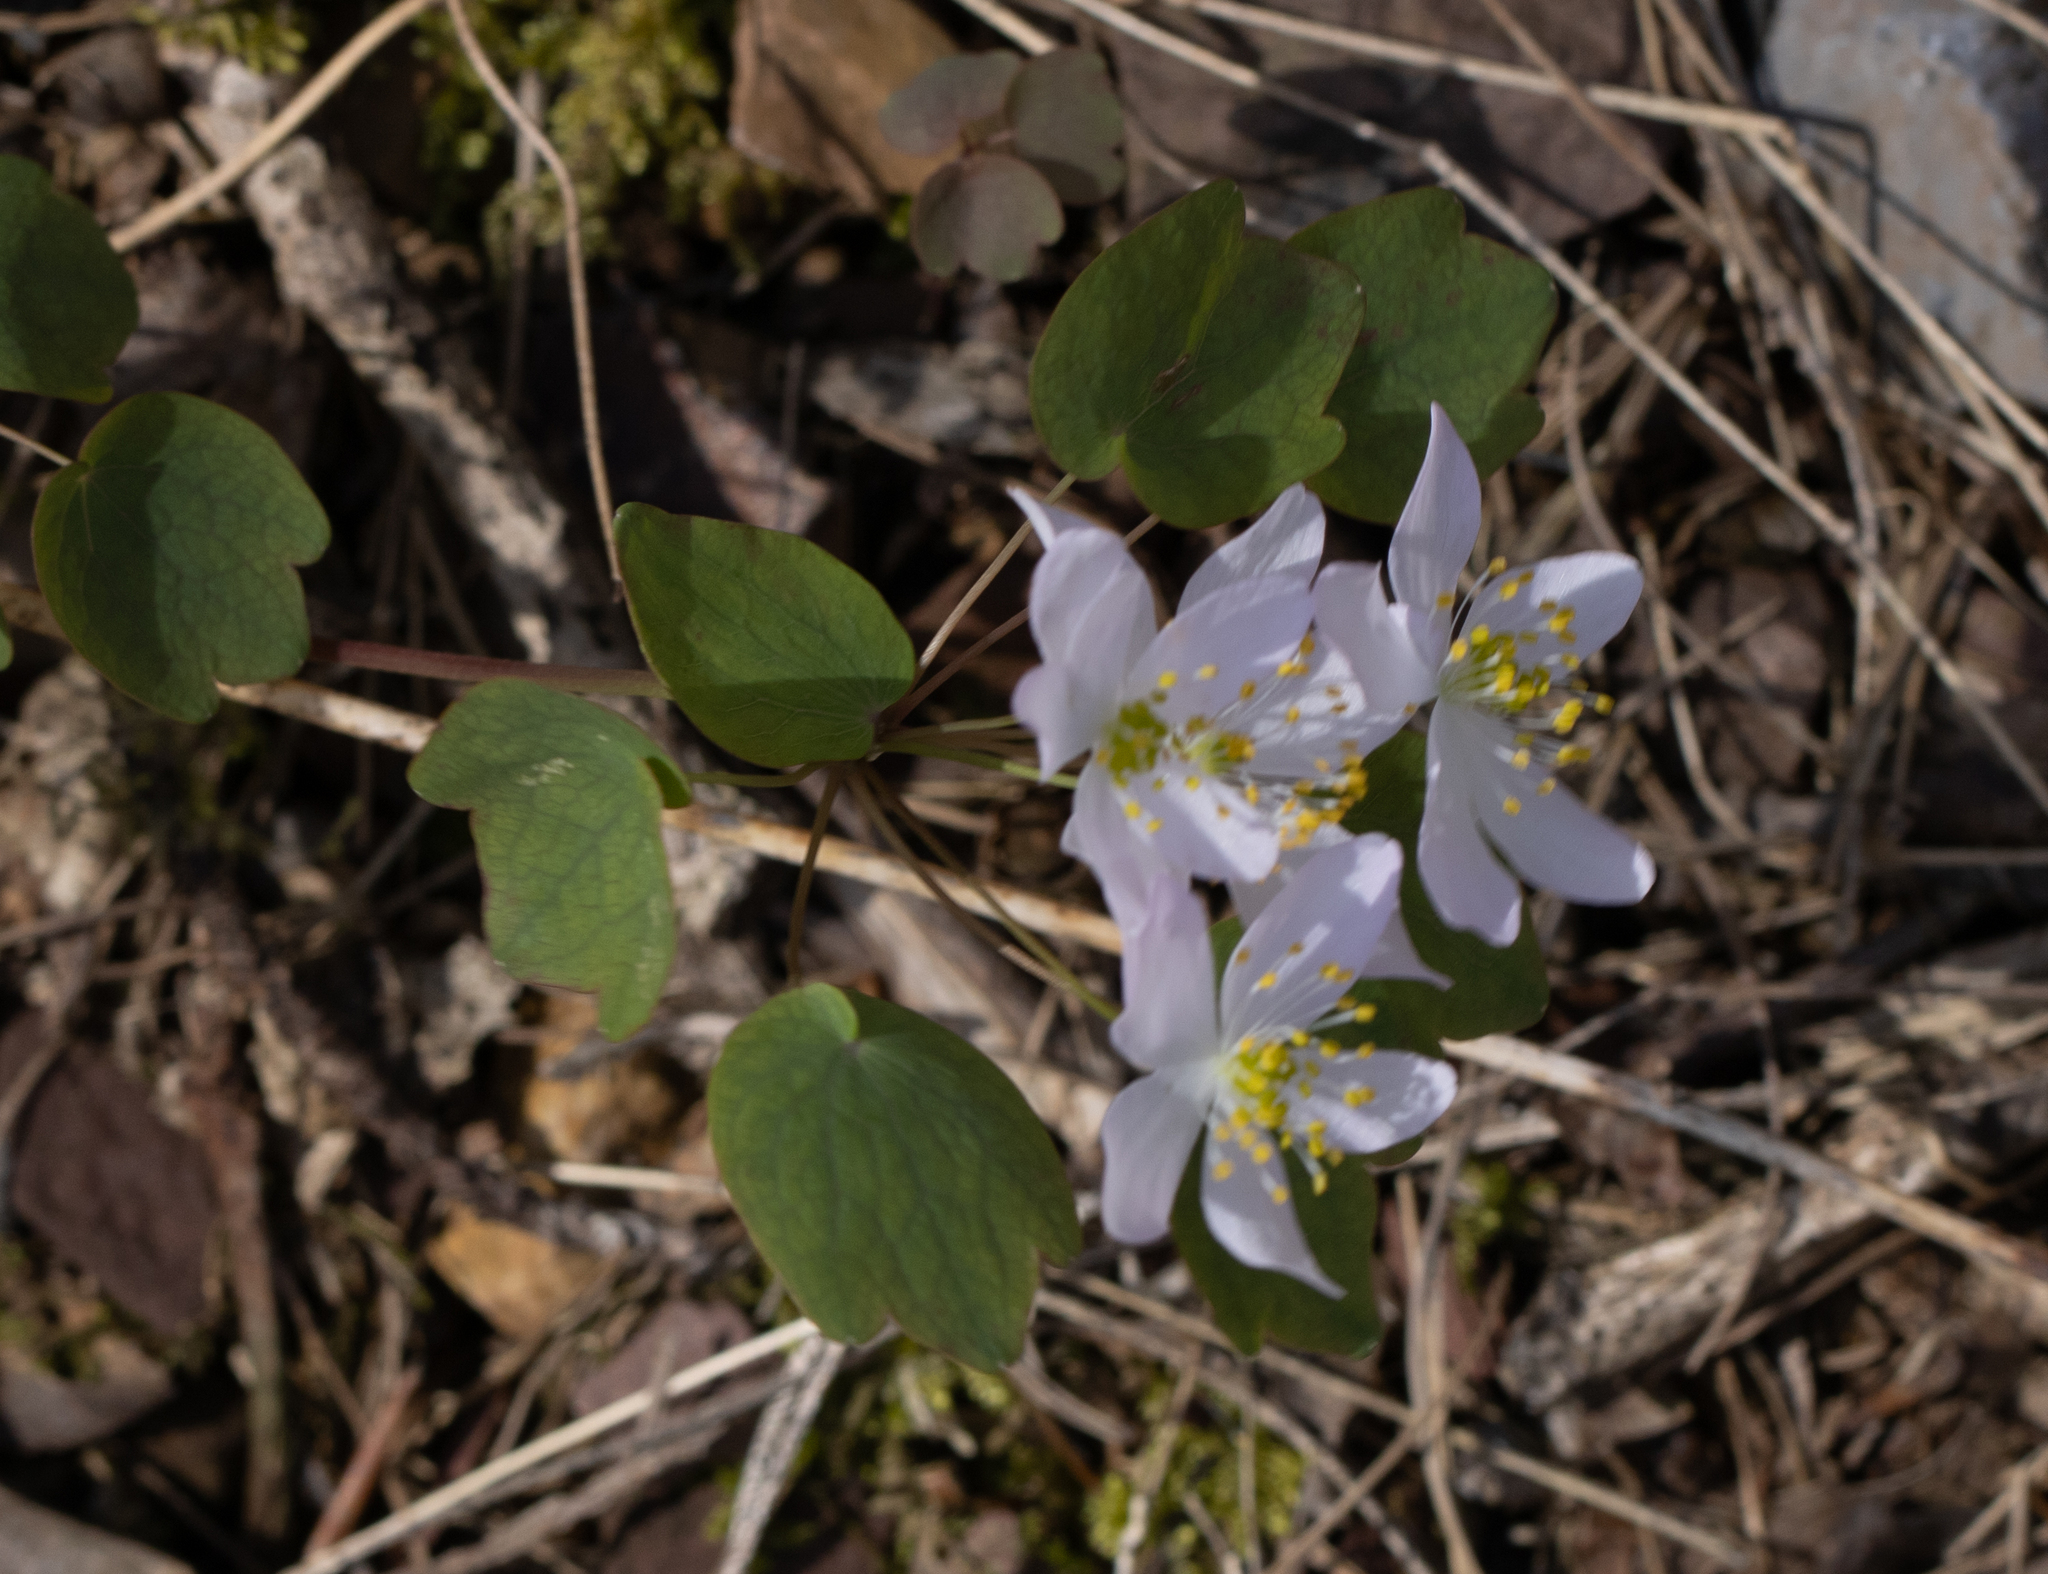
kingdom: Plantae
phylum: Tracheophyta
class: Magnoliopsida
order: Ranunculales
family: Ranunculaceae
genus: Thalictrum
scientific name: Thalictrum thalictroides
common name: Rue-anemone
